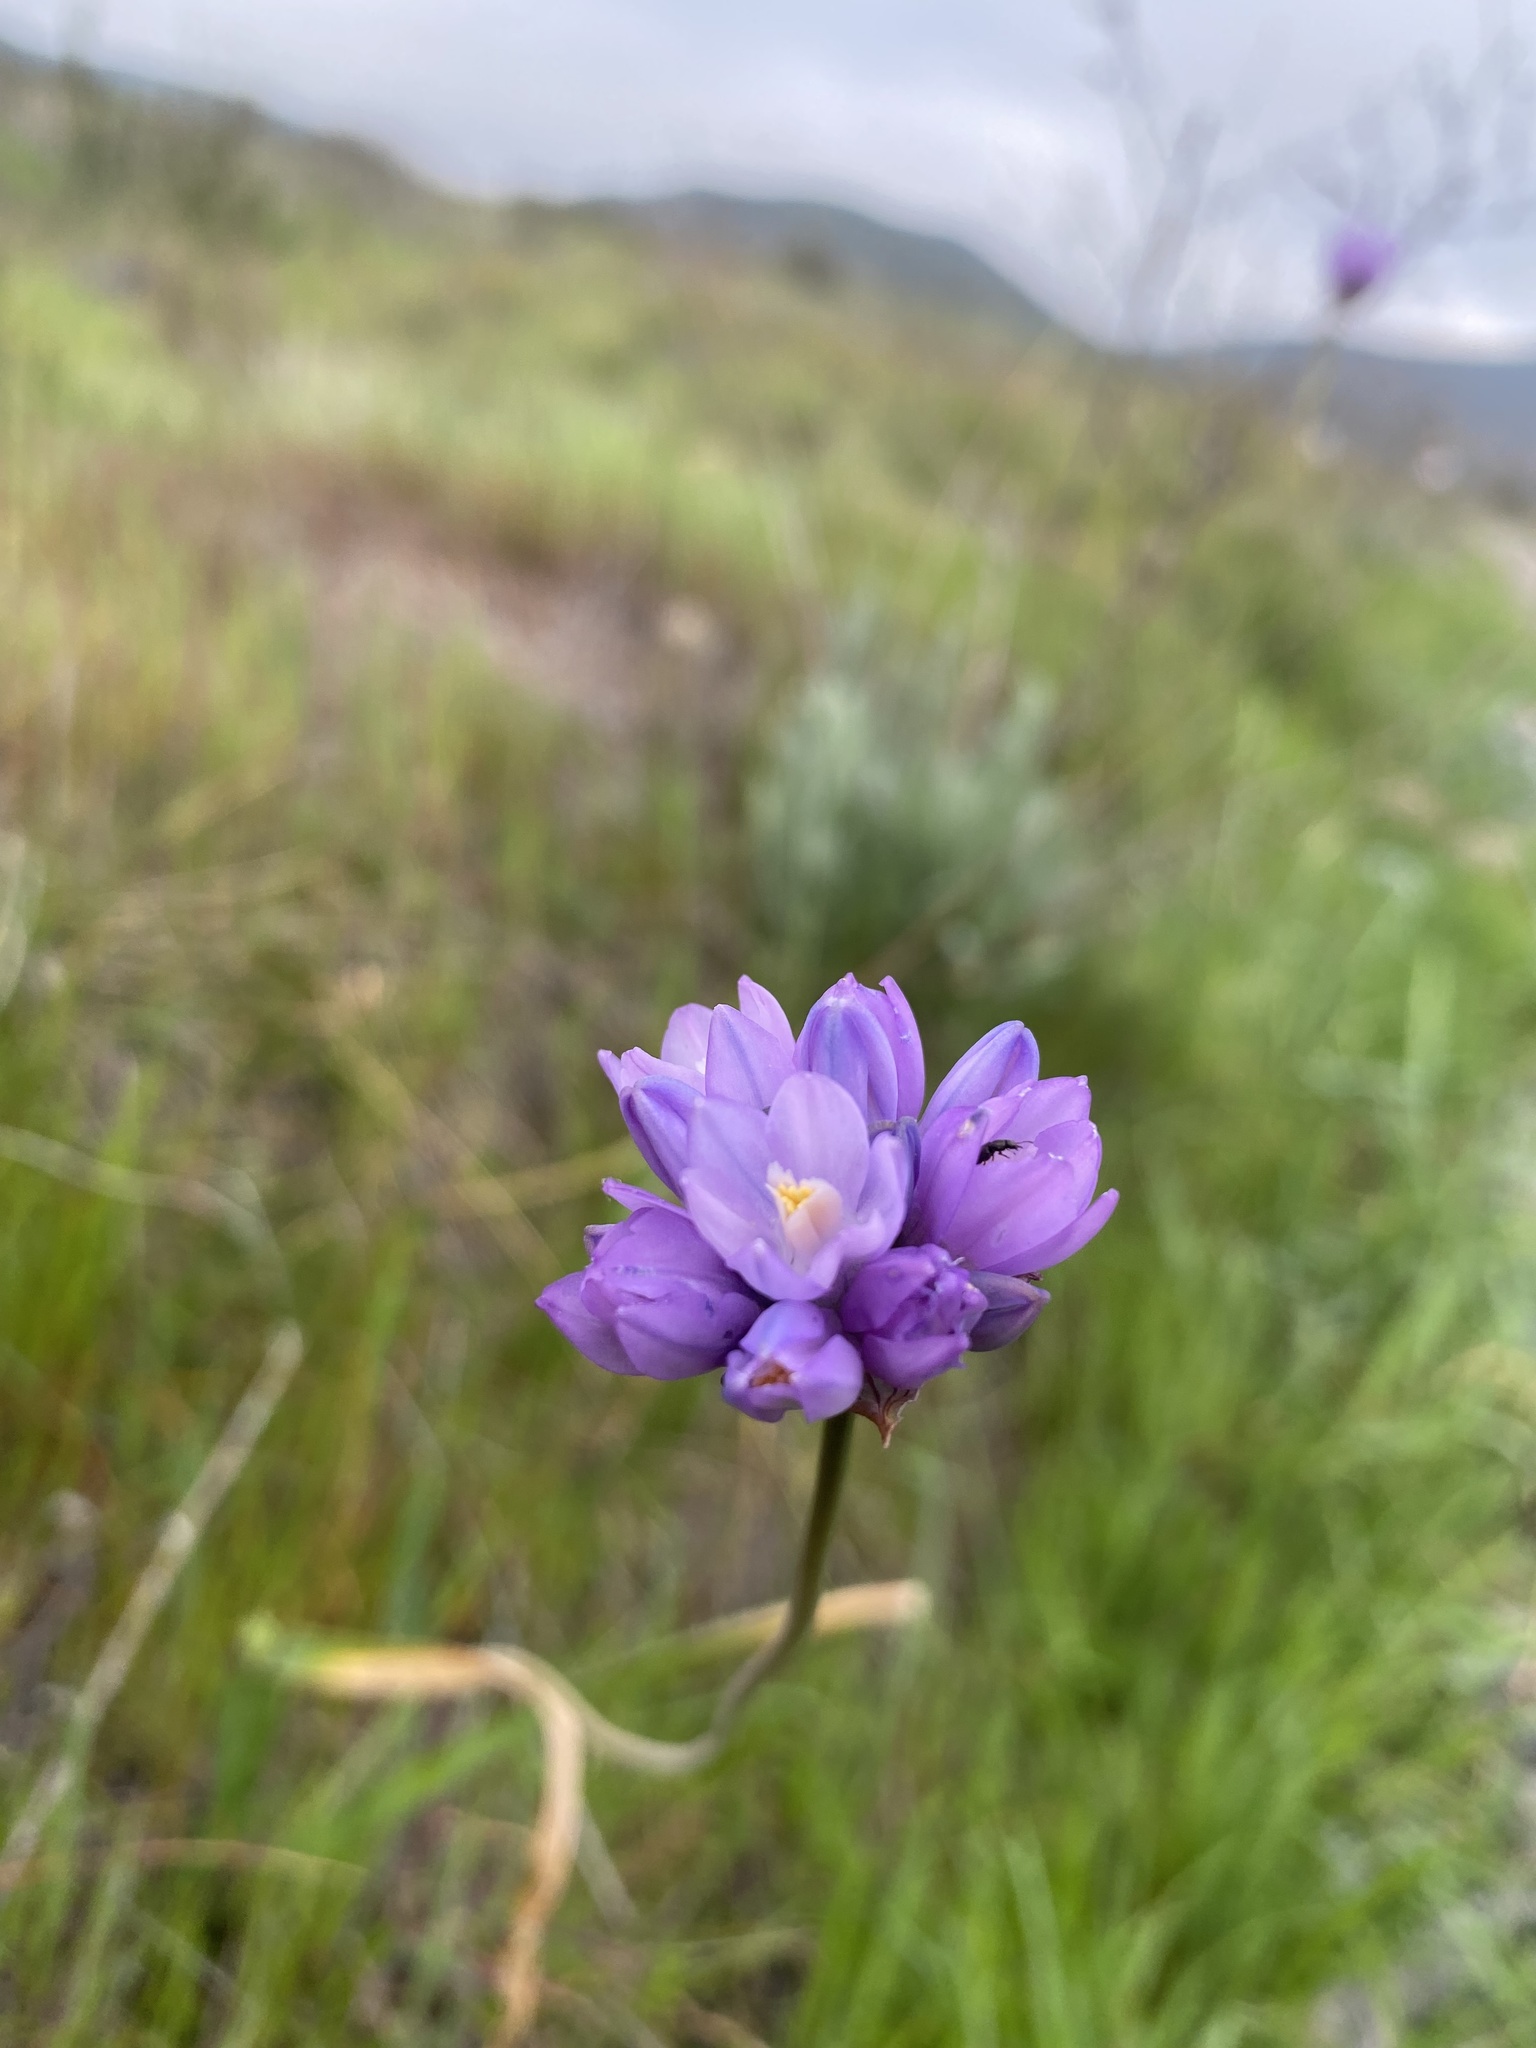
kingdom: Plantae
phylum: Tracheophyta
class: Liliopsida
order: Asparagales
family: Asparagaceae
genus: Dipterostemon
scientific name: Dipterostemon capitatus
